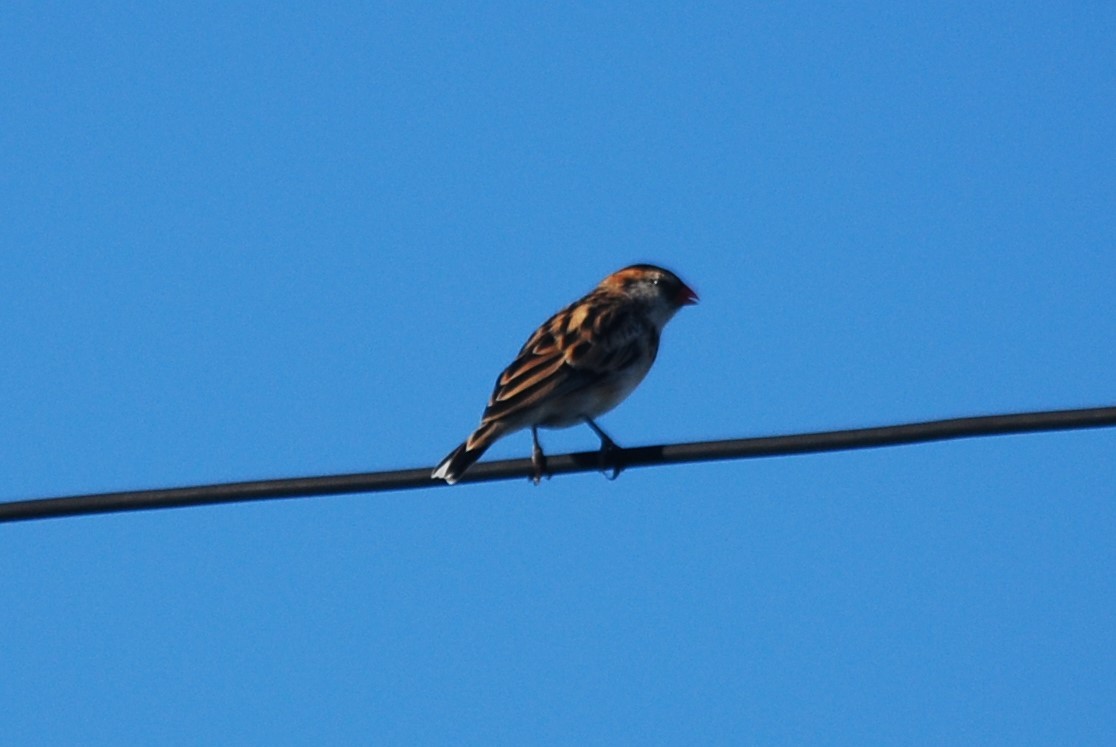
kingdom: Animalia
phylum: Chordata
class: Aves
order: Passeriformes
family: Viduidae
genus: Vidua
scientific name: Vidua macroura
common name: Pin-tailed whydah
